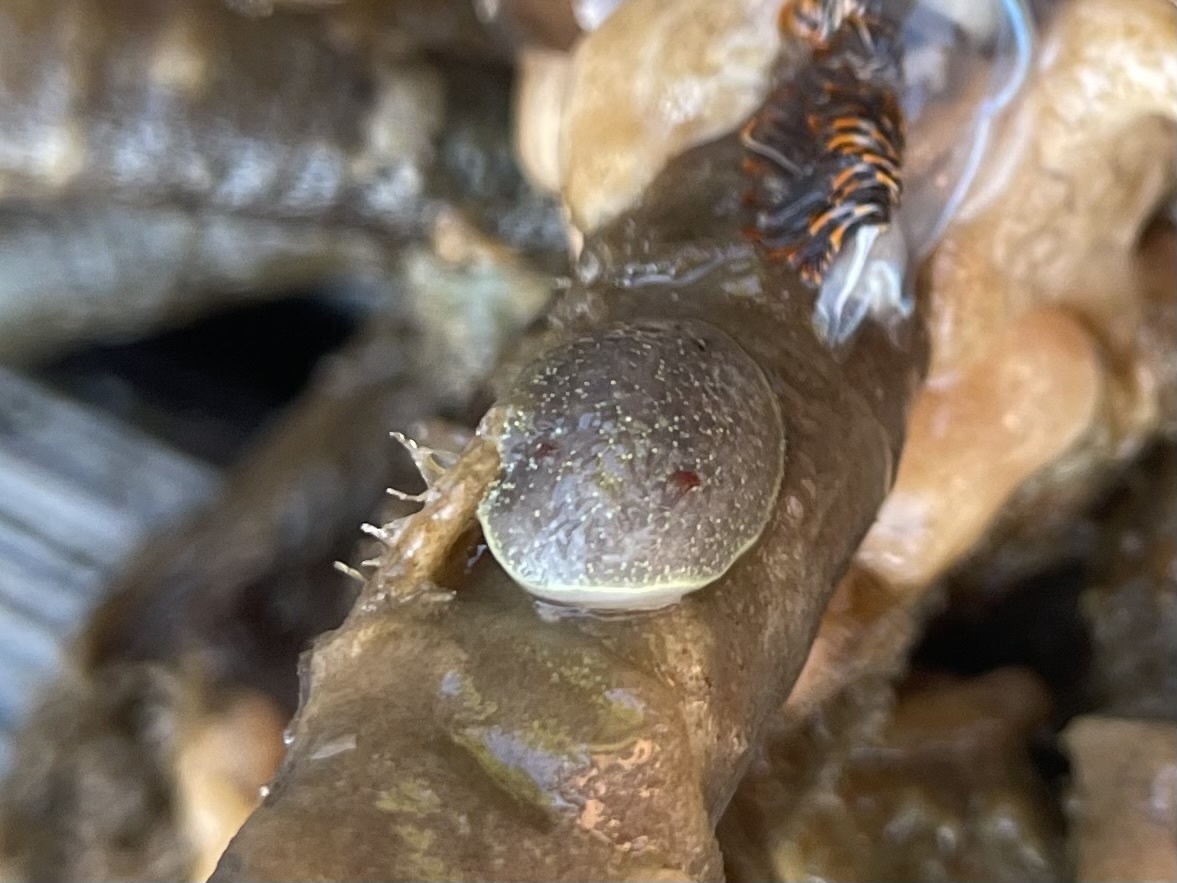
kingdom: Animalia
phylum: Mollusca
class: Gastropoda
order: Nudibranchia
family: Onchidorididae
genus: Acanthodoris
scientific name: Acanthodoris nanaimoensis
